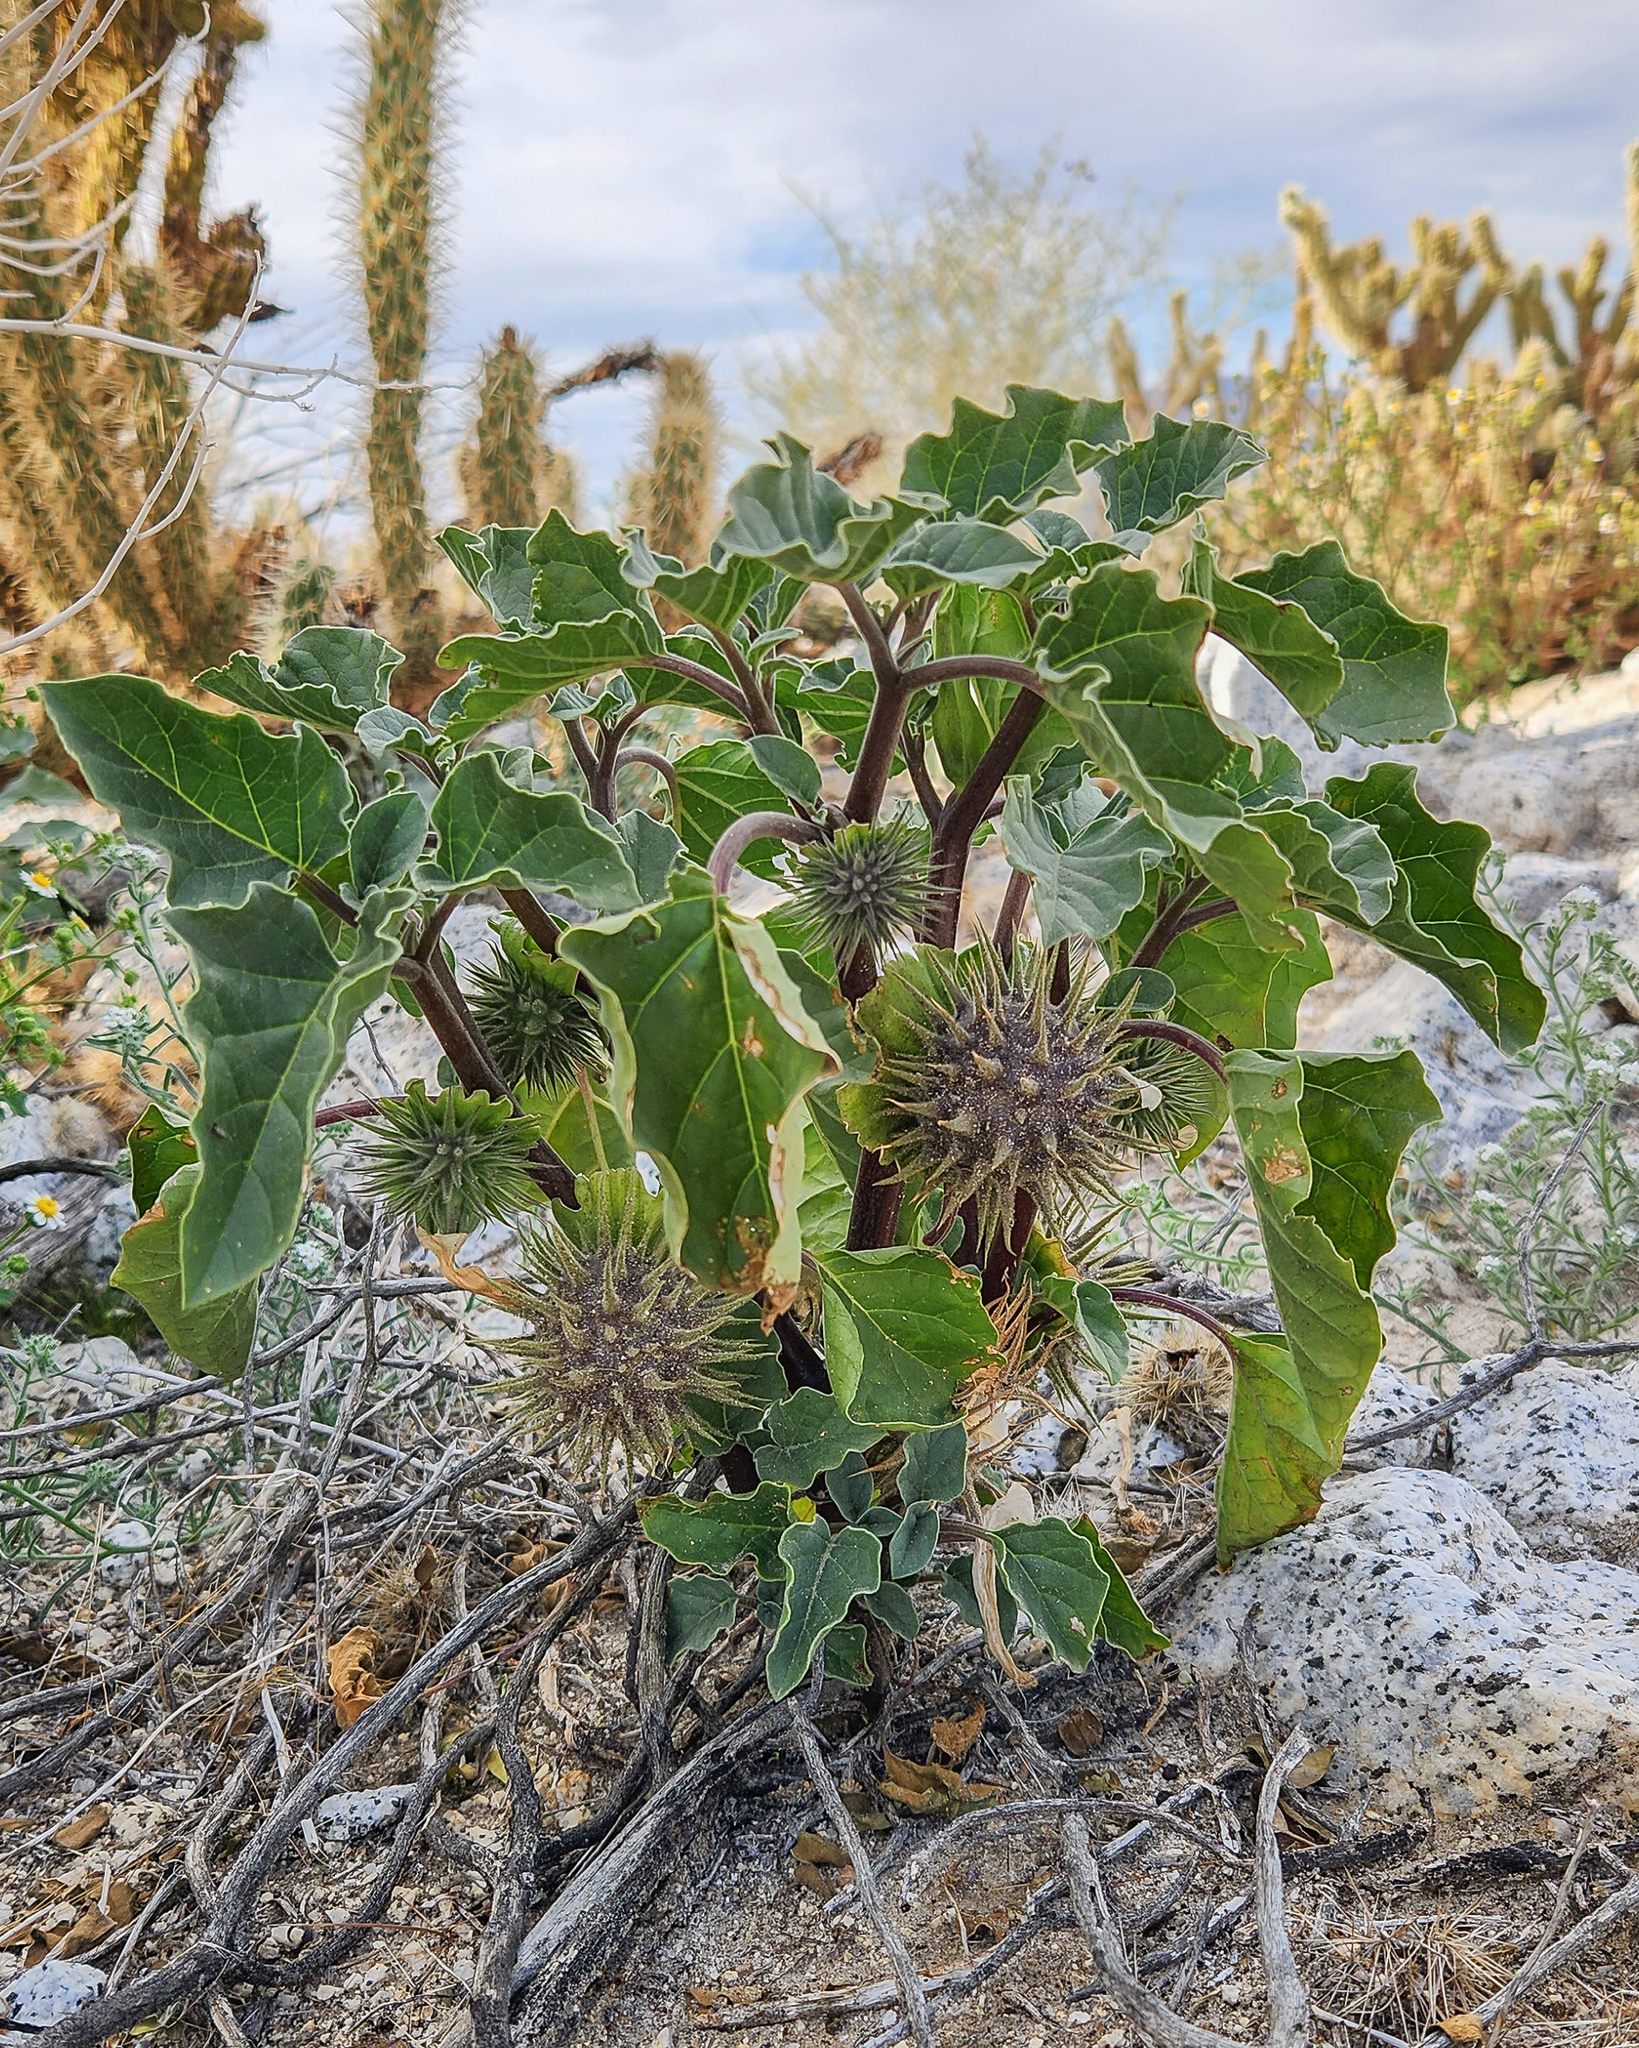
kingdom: Plantae
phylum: Tracheophyta
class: Magnoliopsida
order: Solanales
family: Solanaceae
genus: Datura
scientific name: Datura discolor
